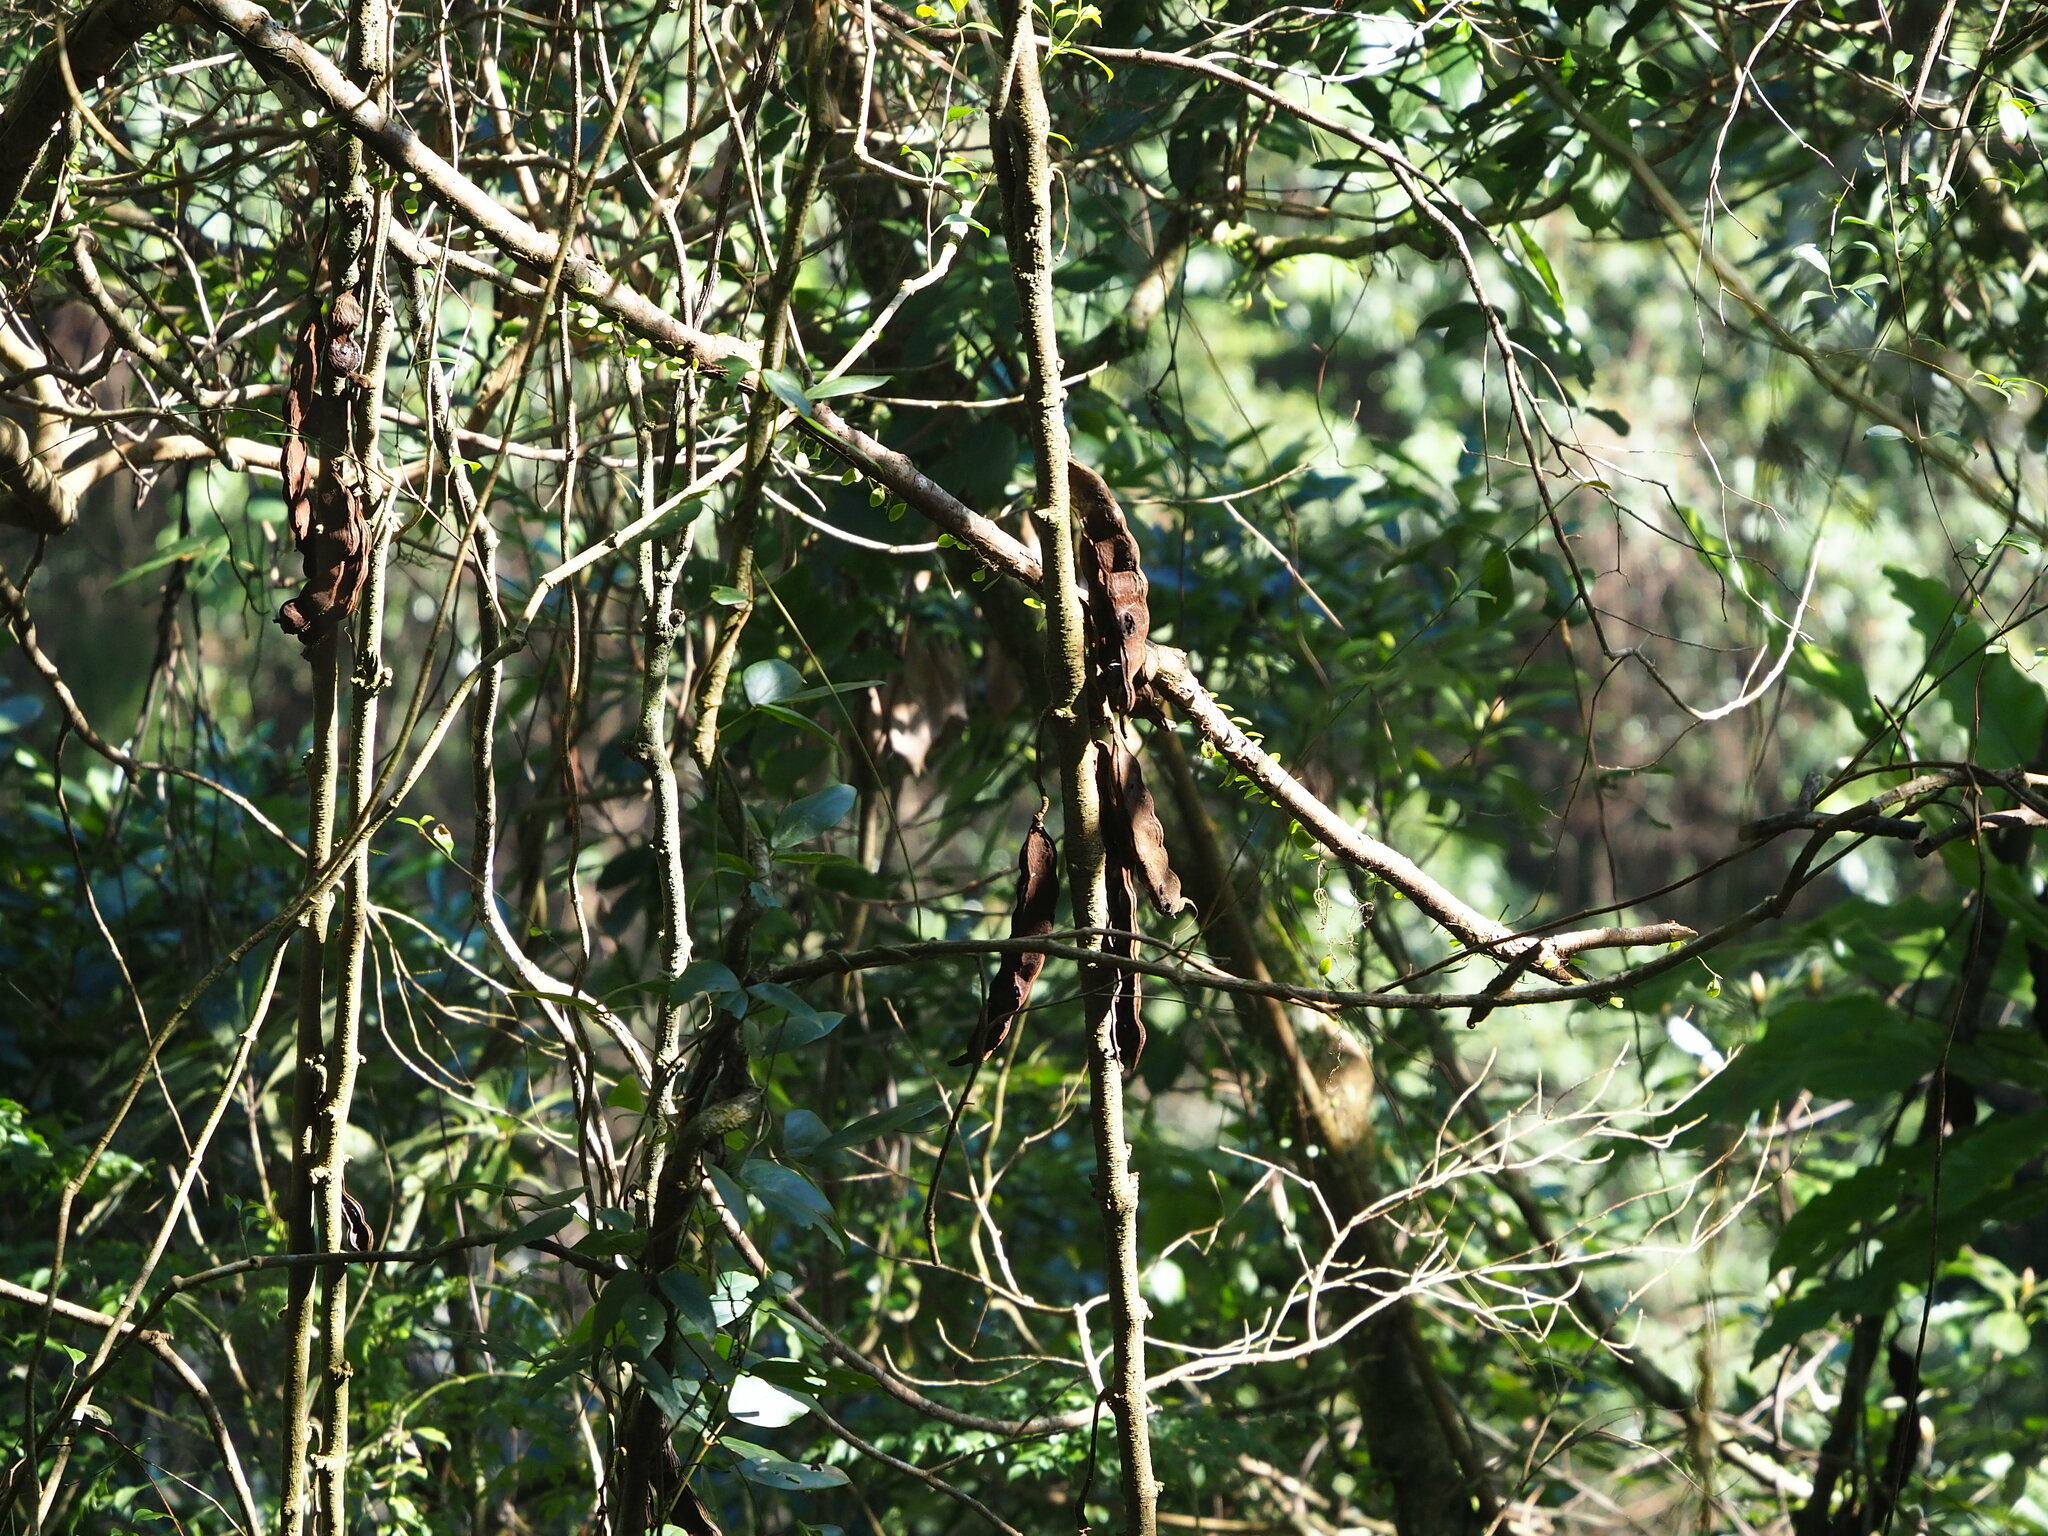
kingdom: Plantae
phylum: Tracheophyta
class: Magnoliopsida
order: Fabales
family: Fabaceae
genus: Mucuna
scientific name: Mucuna macrocarpa
